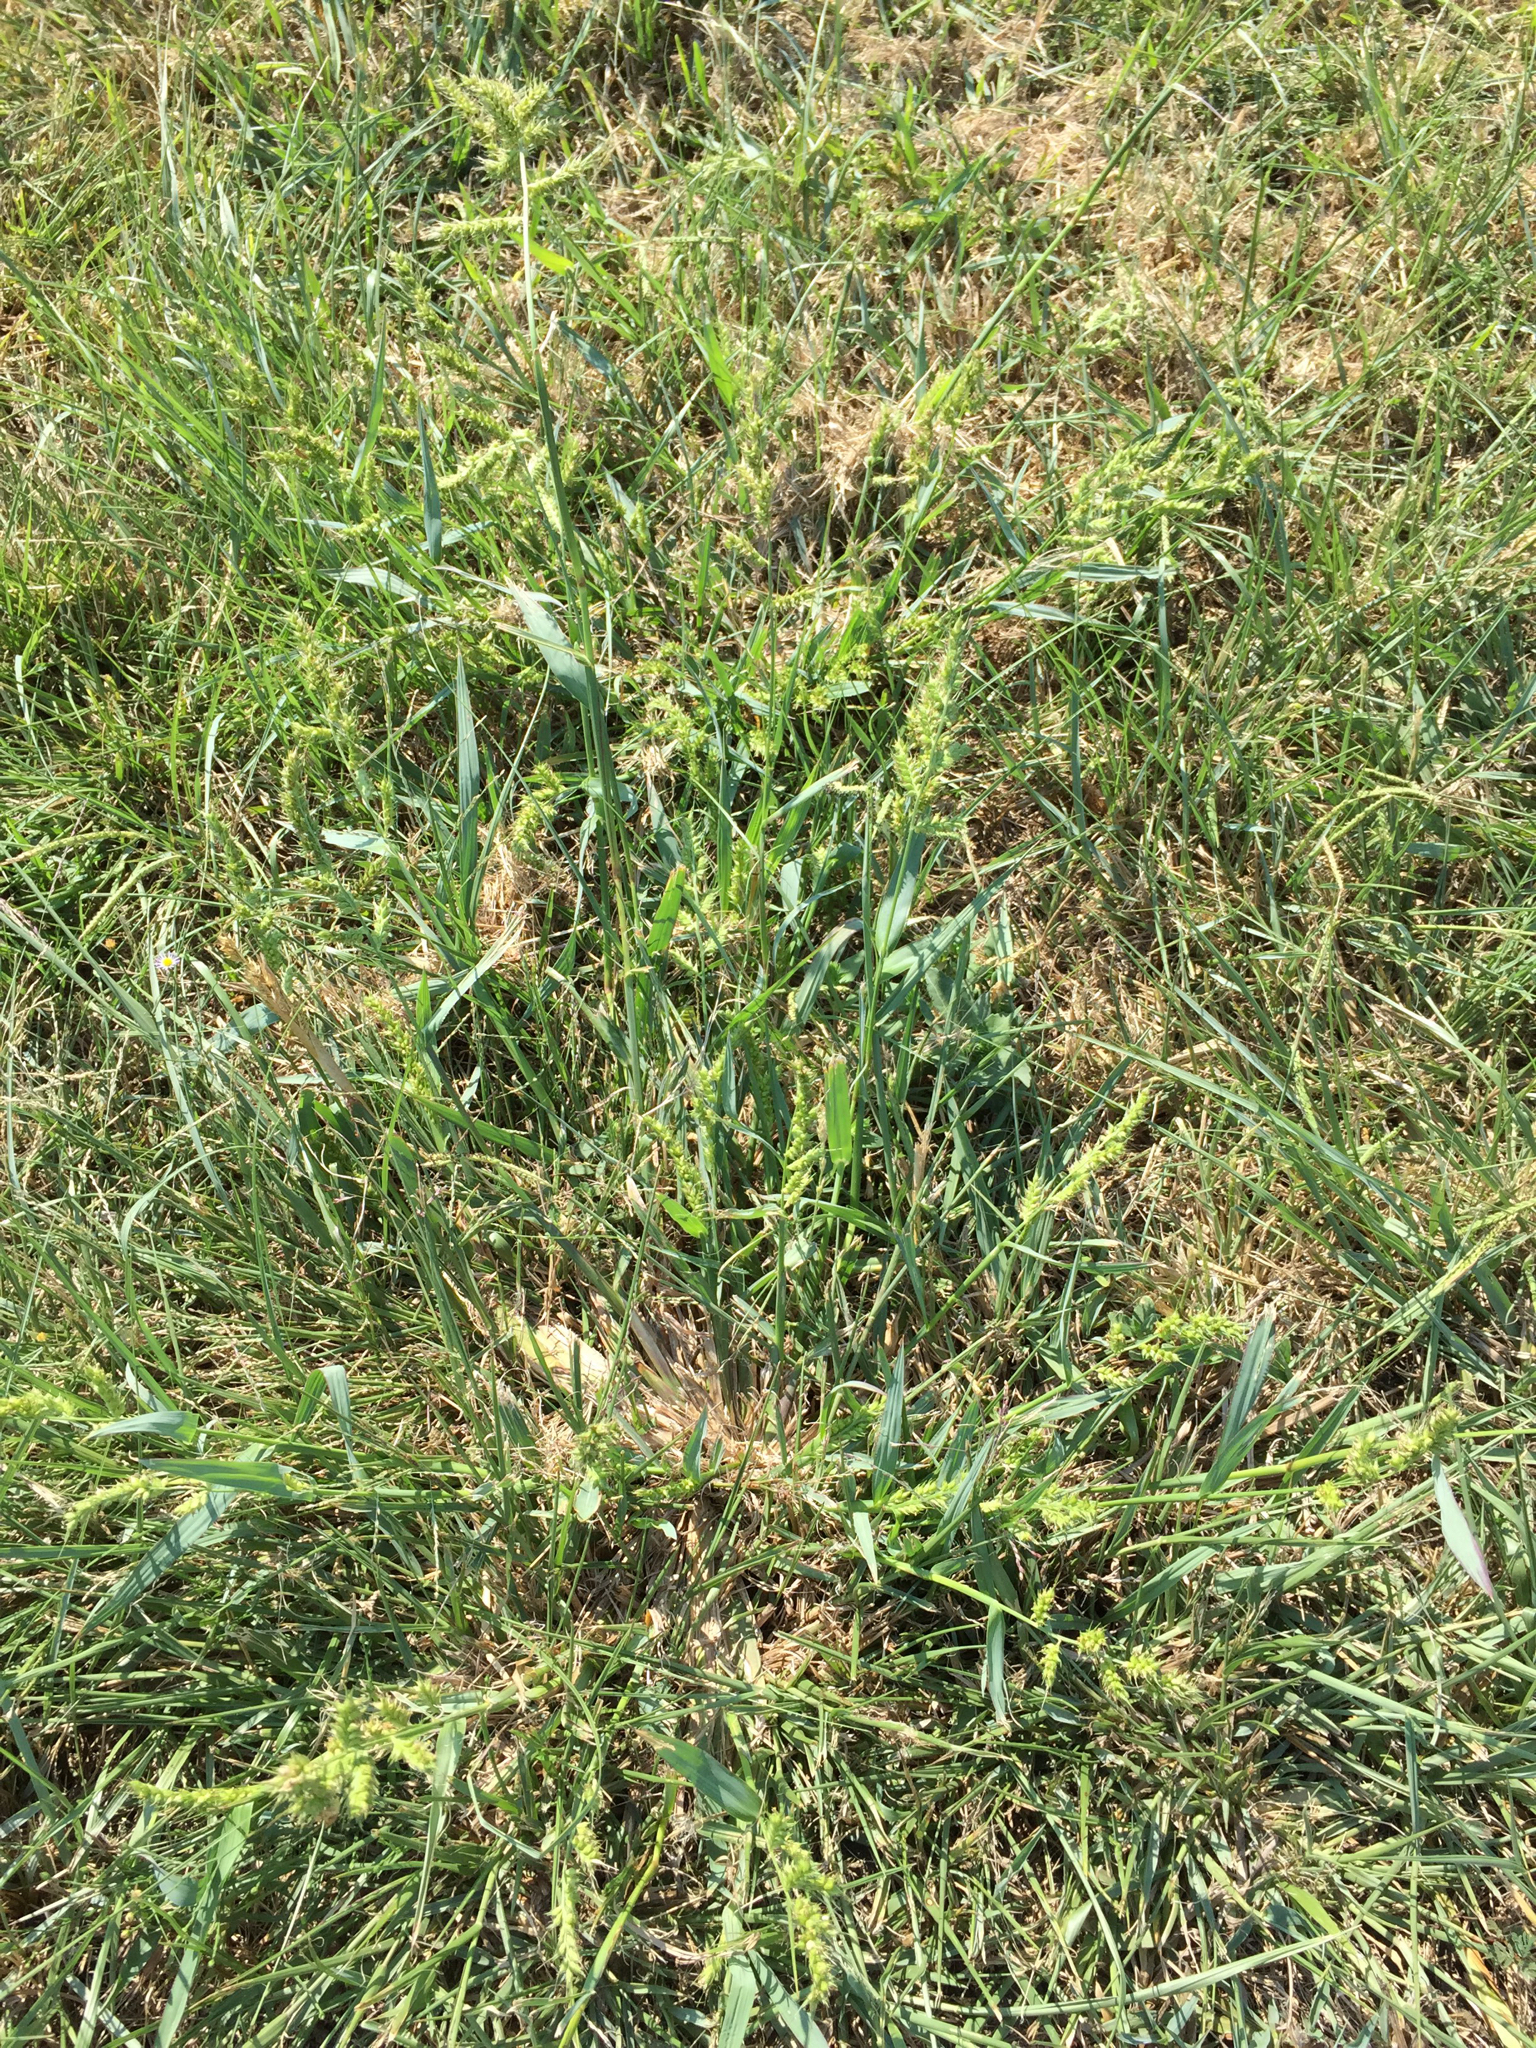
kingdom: Plantae
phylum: Tracheophyta
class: Liliopsida
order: Poales
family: Poaceae
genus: Echinochloa
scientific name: Echinochloa crus-galli
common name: Cockspur
